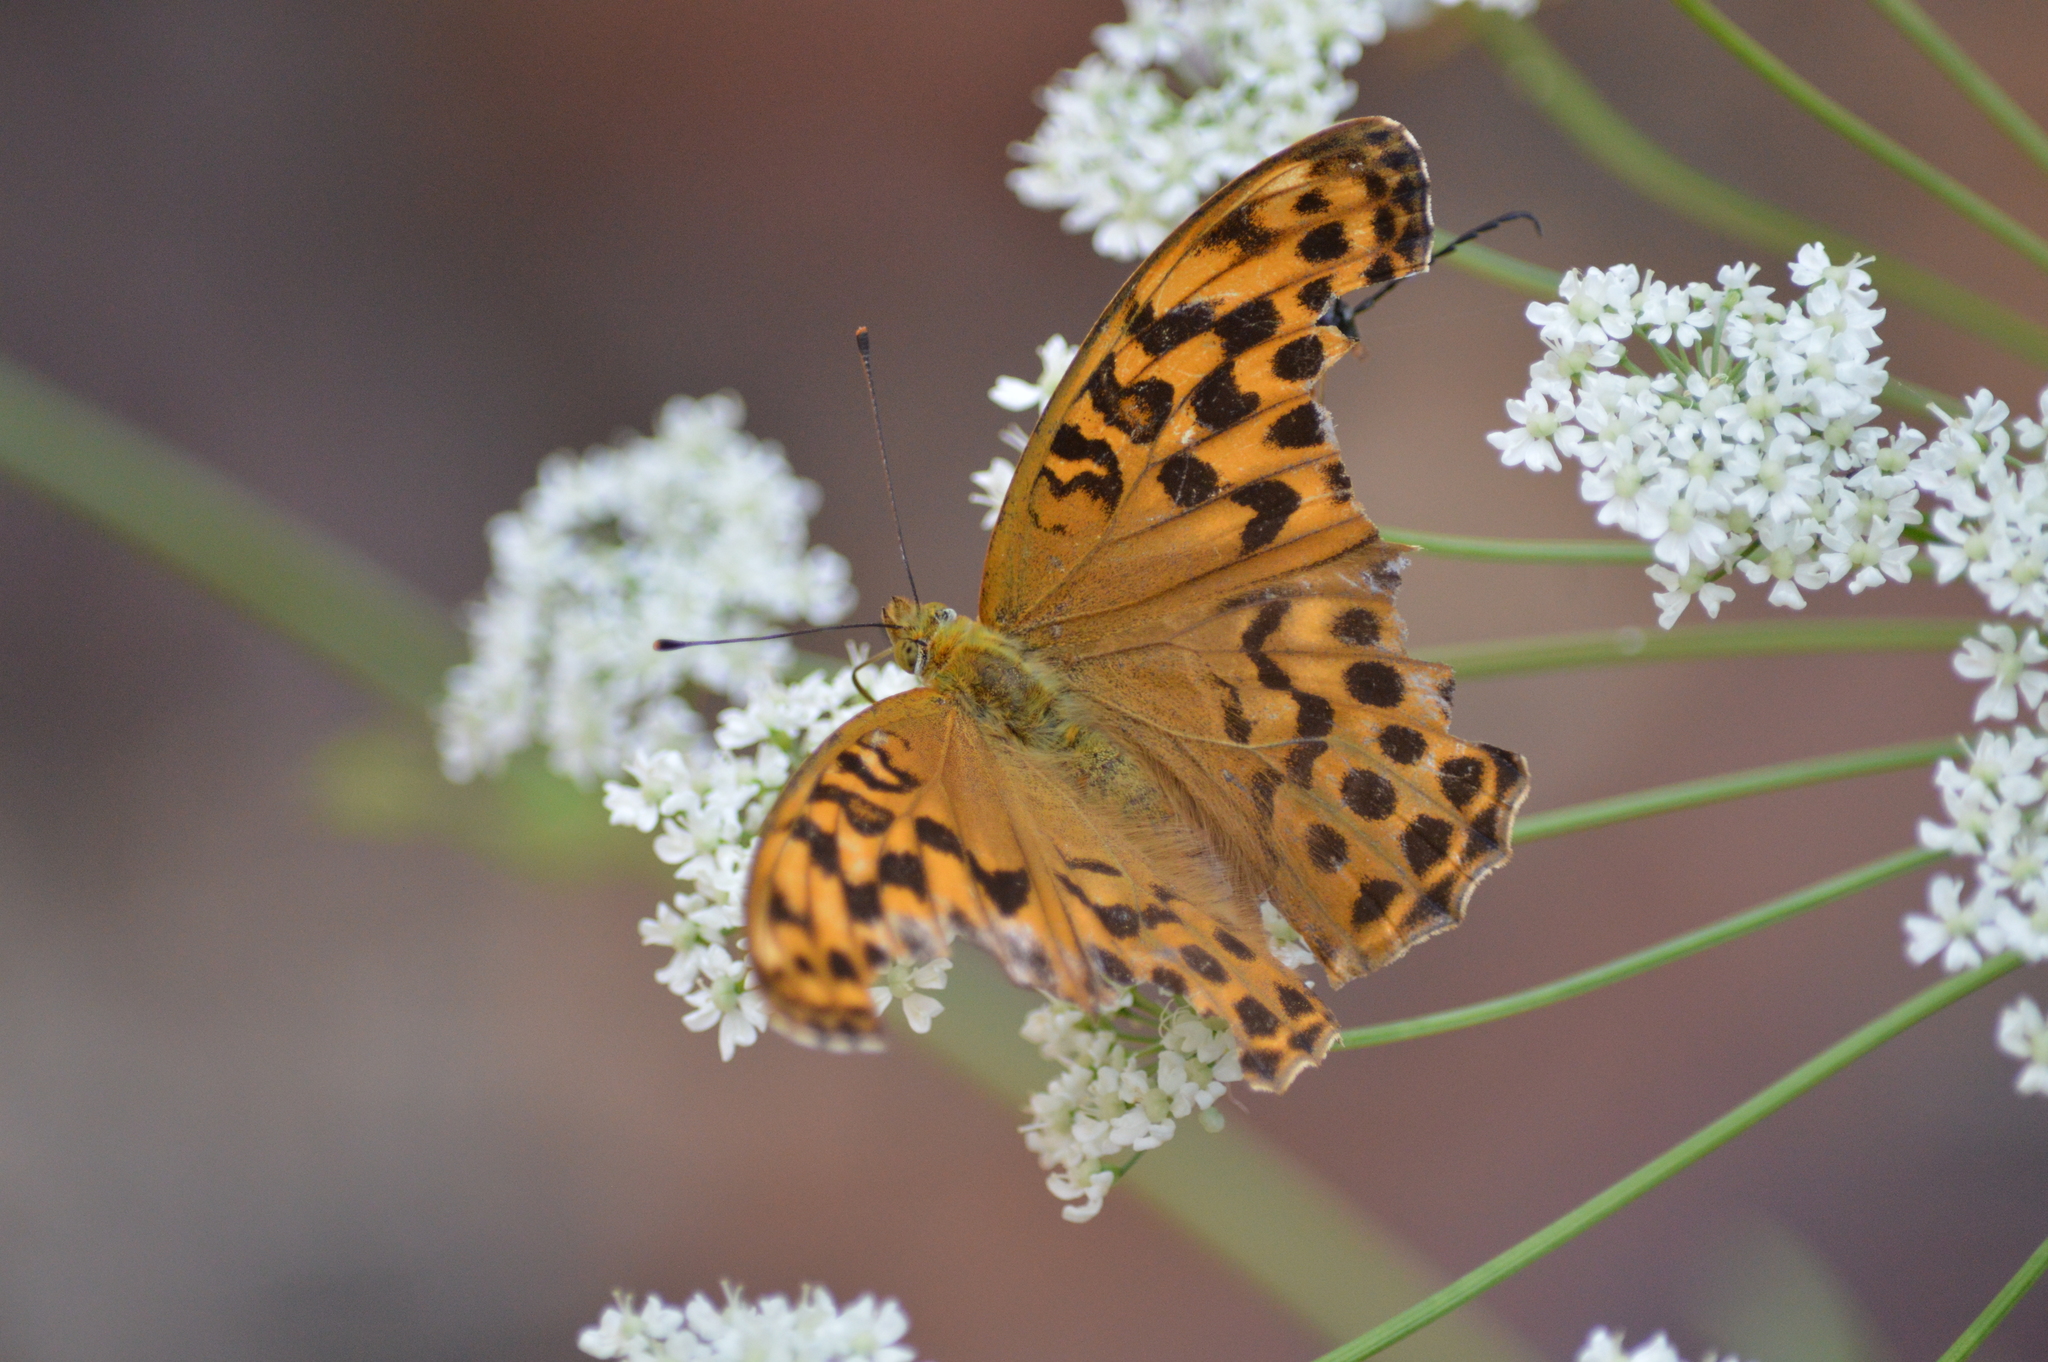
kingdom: Animalia
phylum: Arthropoda
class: Insecta
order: Lepidoptera
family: Nymphalidae
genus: Argynnis
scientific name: Argynnis paphia
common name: Silver-washed fritillary
